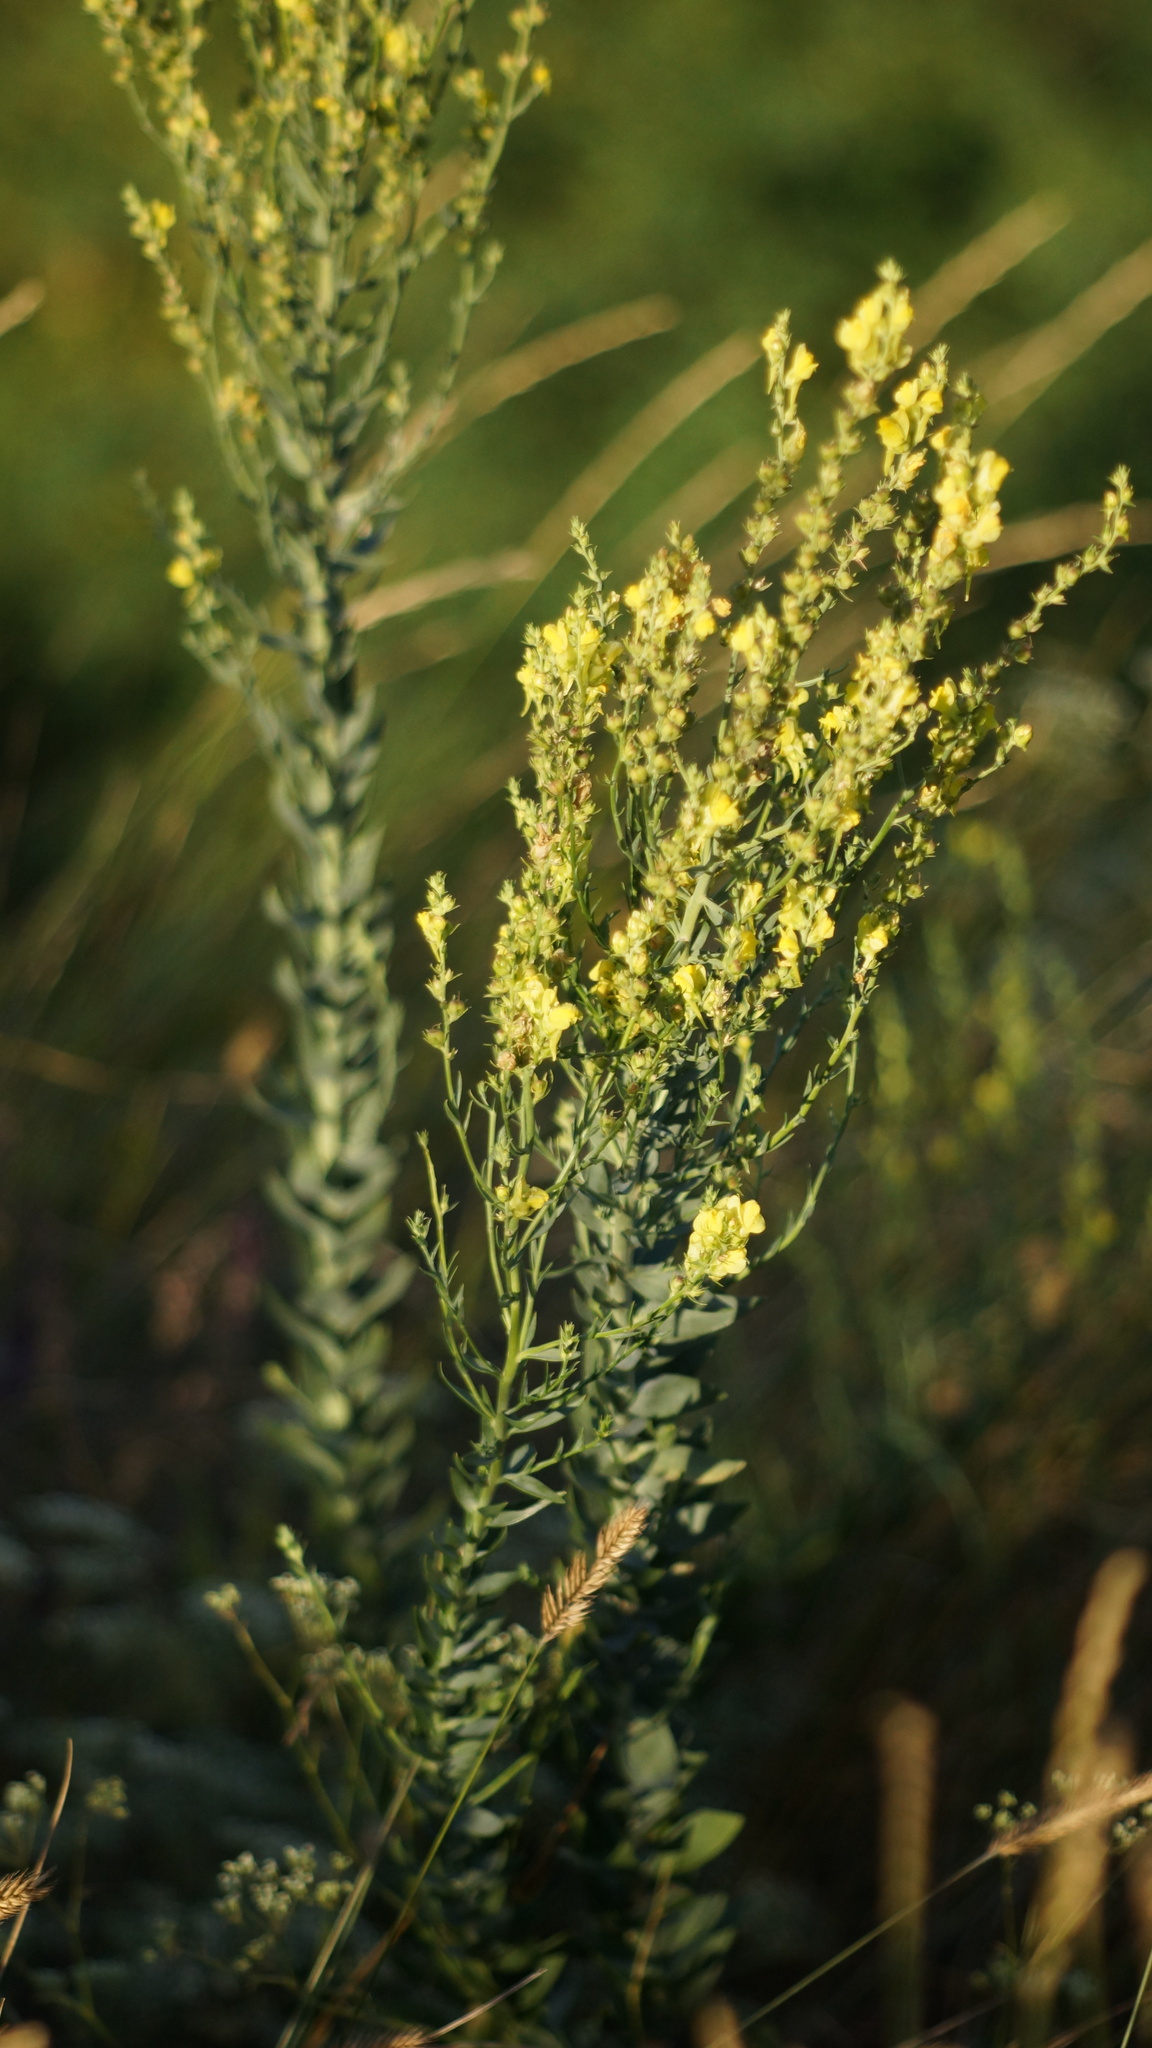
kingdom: Plantae
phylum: Tracheophyta
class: Magnoliopsida
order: Lamiales
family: Plantaginaceae
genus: Linaria
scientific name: Linaria genistifolia
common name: Broomleaf toadflax
